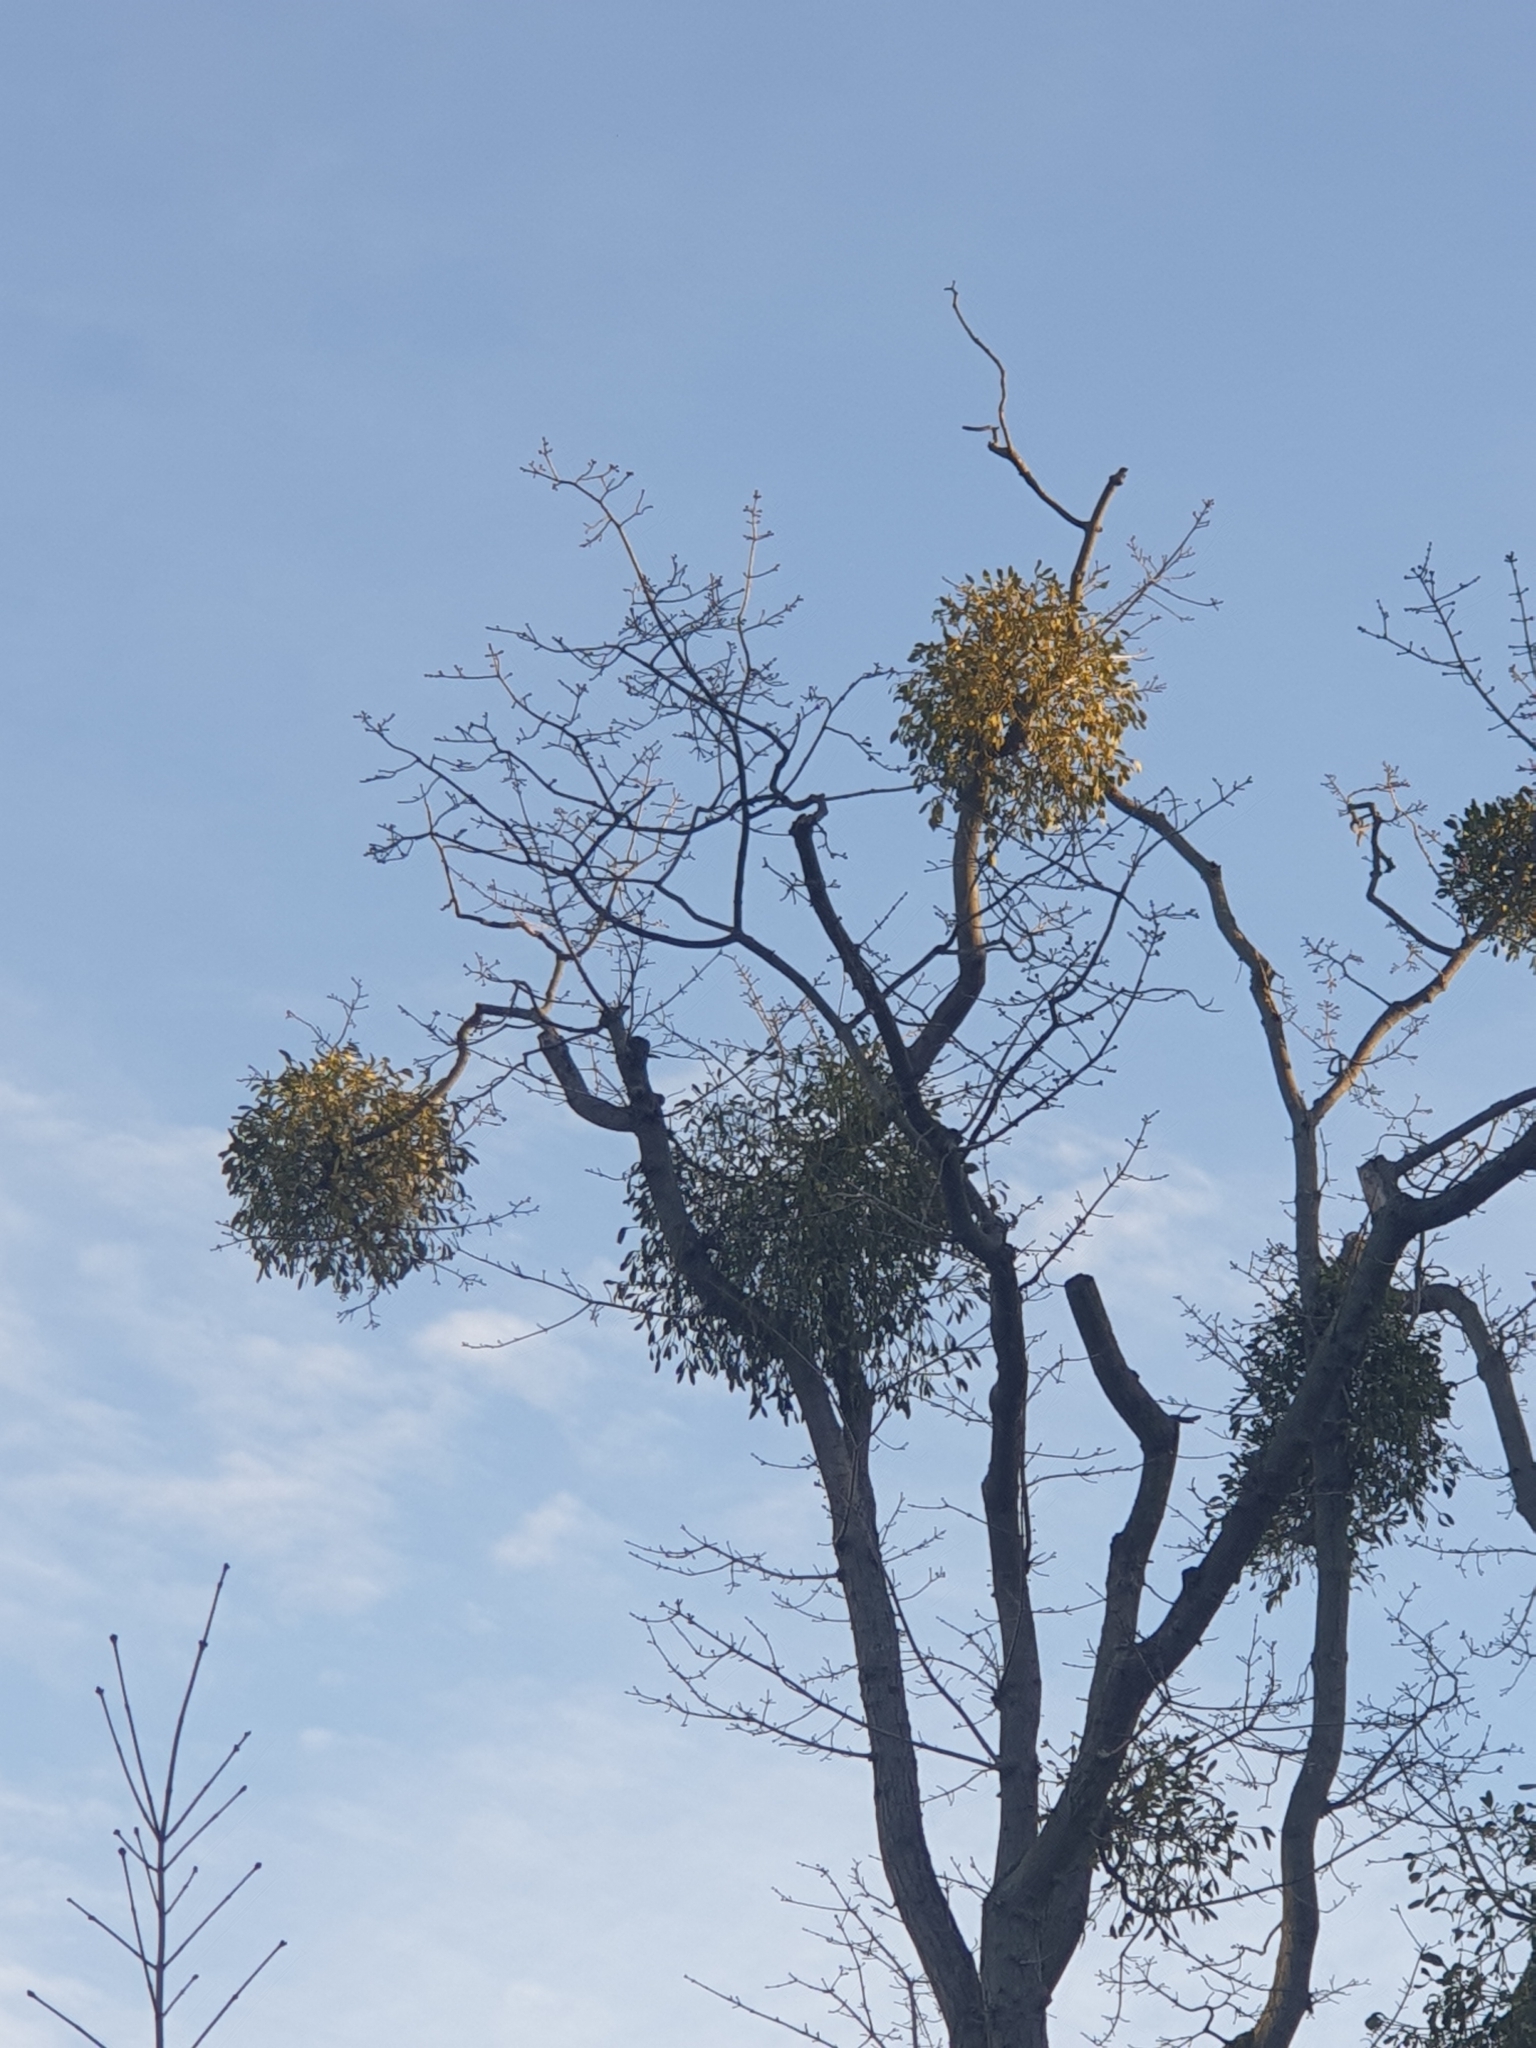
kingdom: Plantae
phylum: Tracheophyta
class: Magnoliopsida
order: Santalales
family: Viscaceae
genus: Viscum
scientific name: Viscum album
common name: Mistletoe
